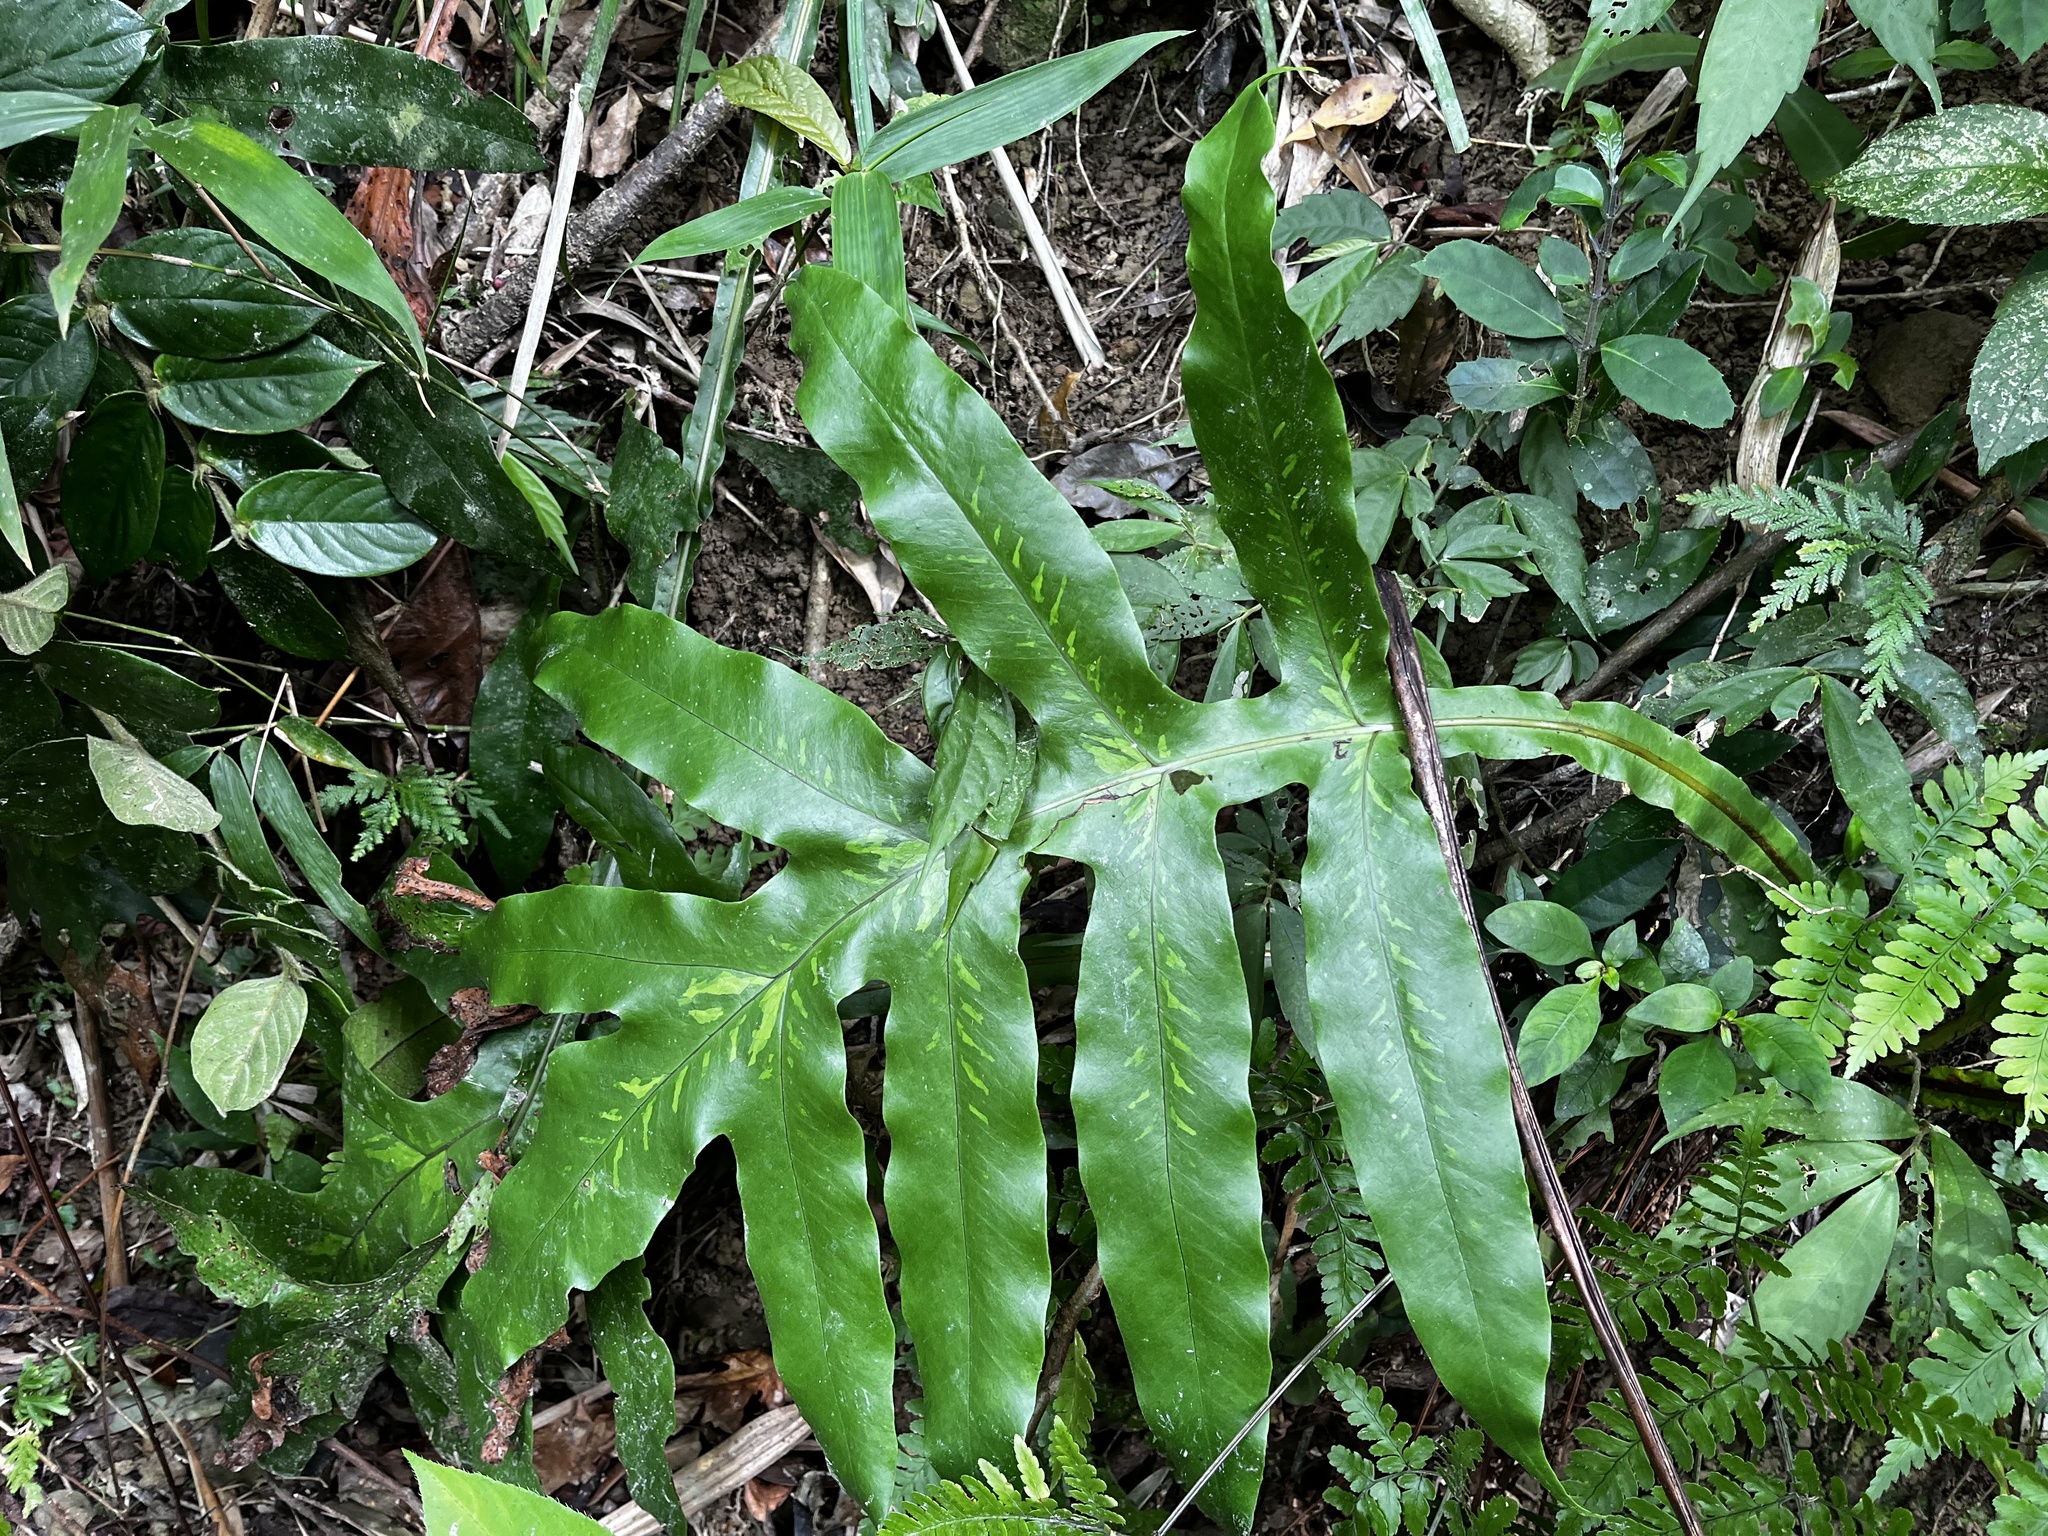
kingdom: Plantae
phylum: Tracheophyta
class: Polypodiopsida
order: Polypodiales
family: Tectariaceae
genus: Tectaria
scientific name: Tectaria decurrens
